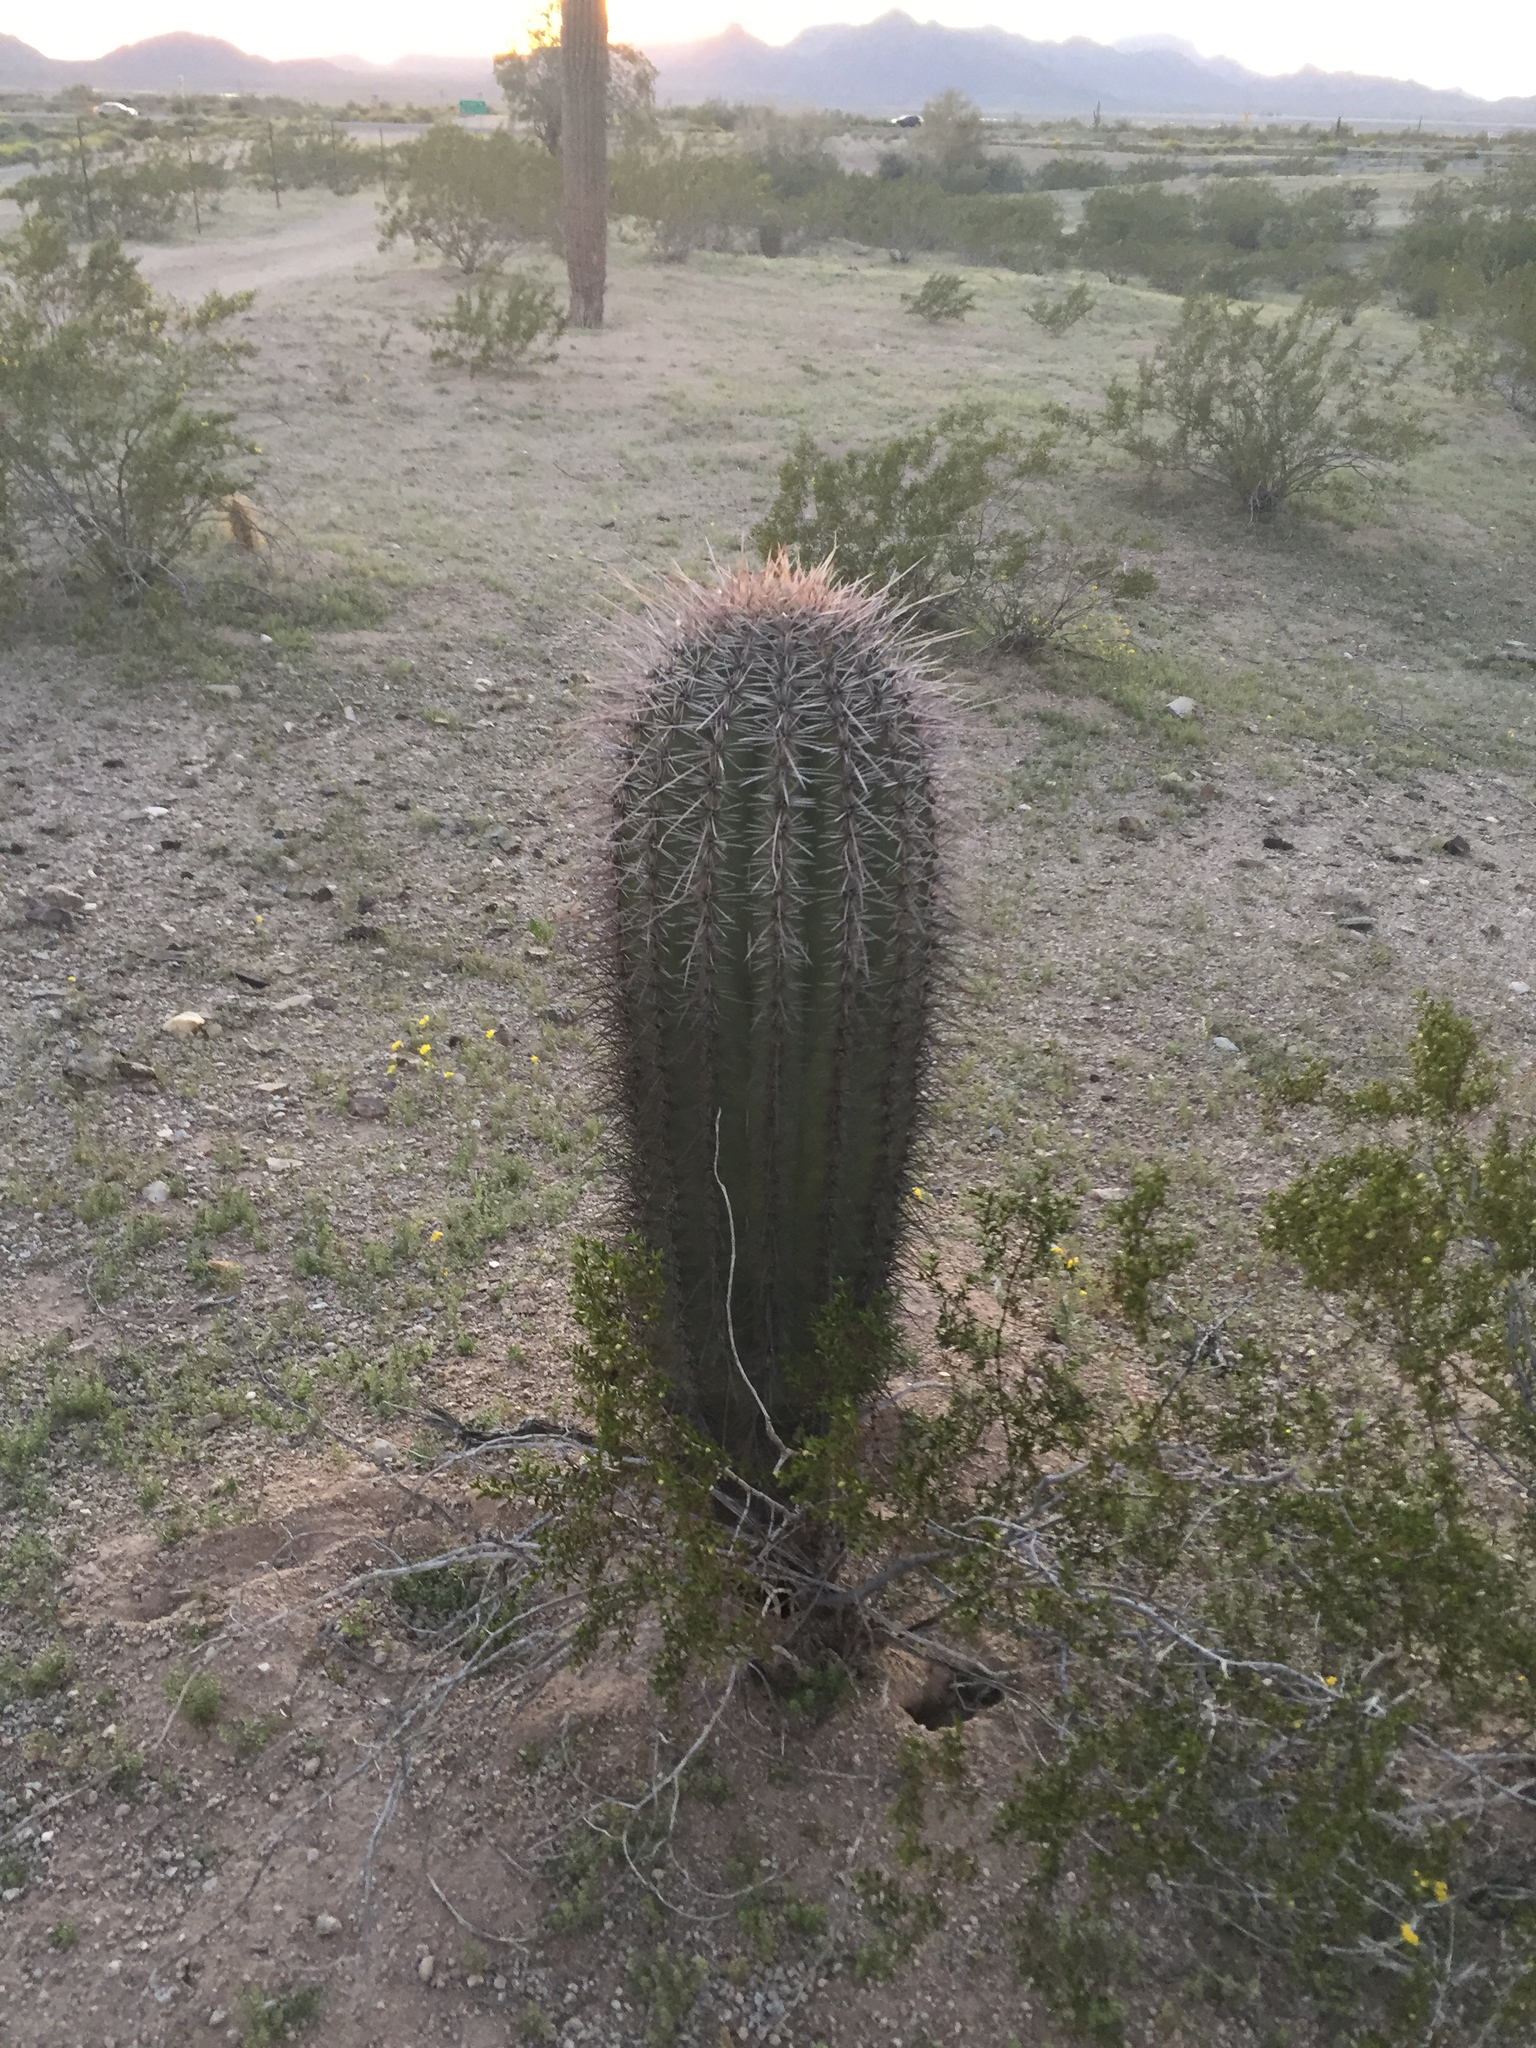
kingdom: Plantae
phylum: Tracheophyta
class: Magnoliopsida
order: Caryophyllales
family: Cactaceae
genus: Carnegiea
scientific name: Carnegiea gigantea
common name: Saguaro
